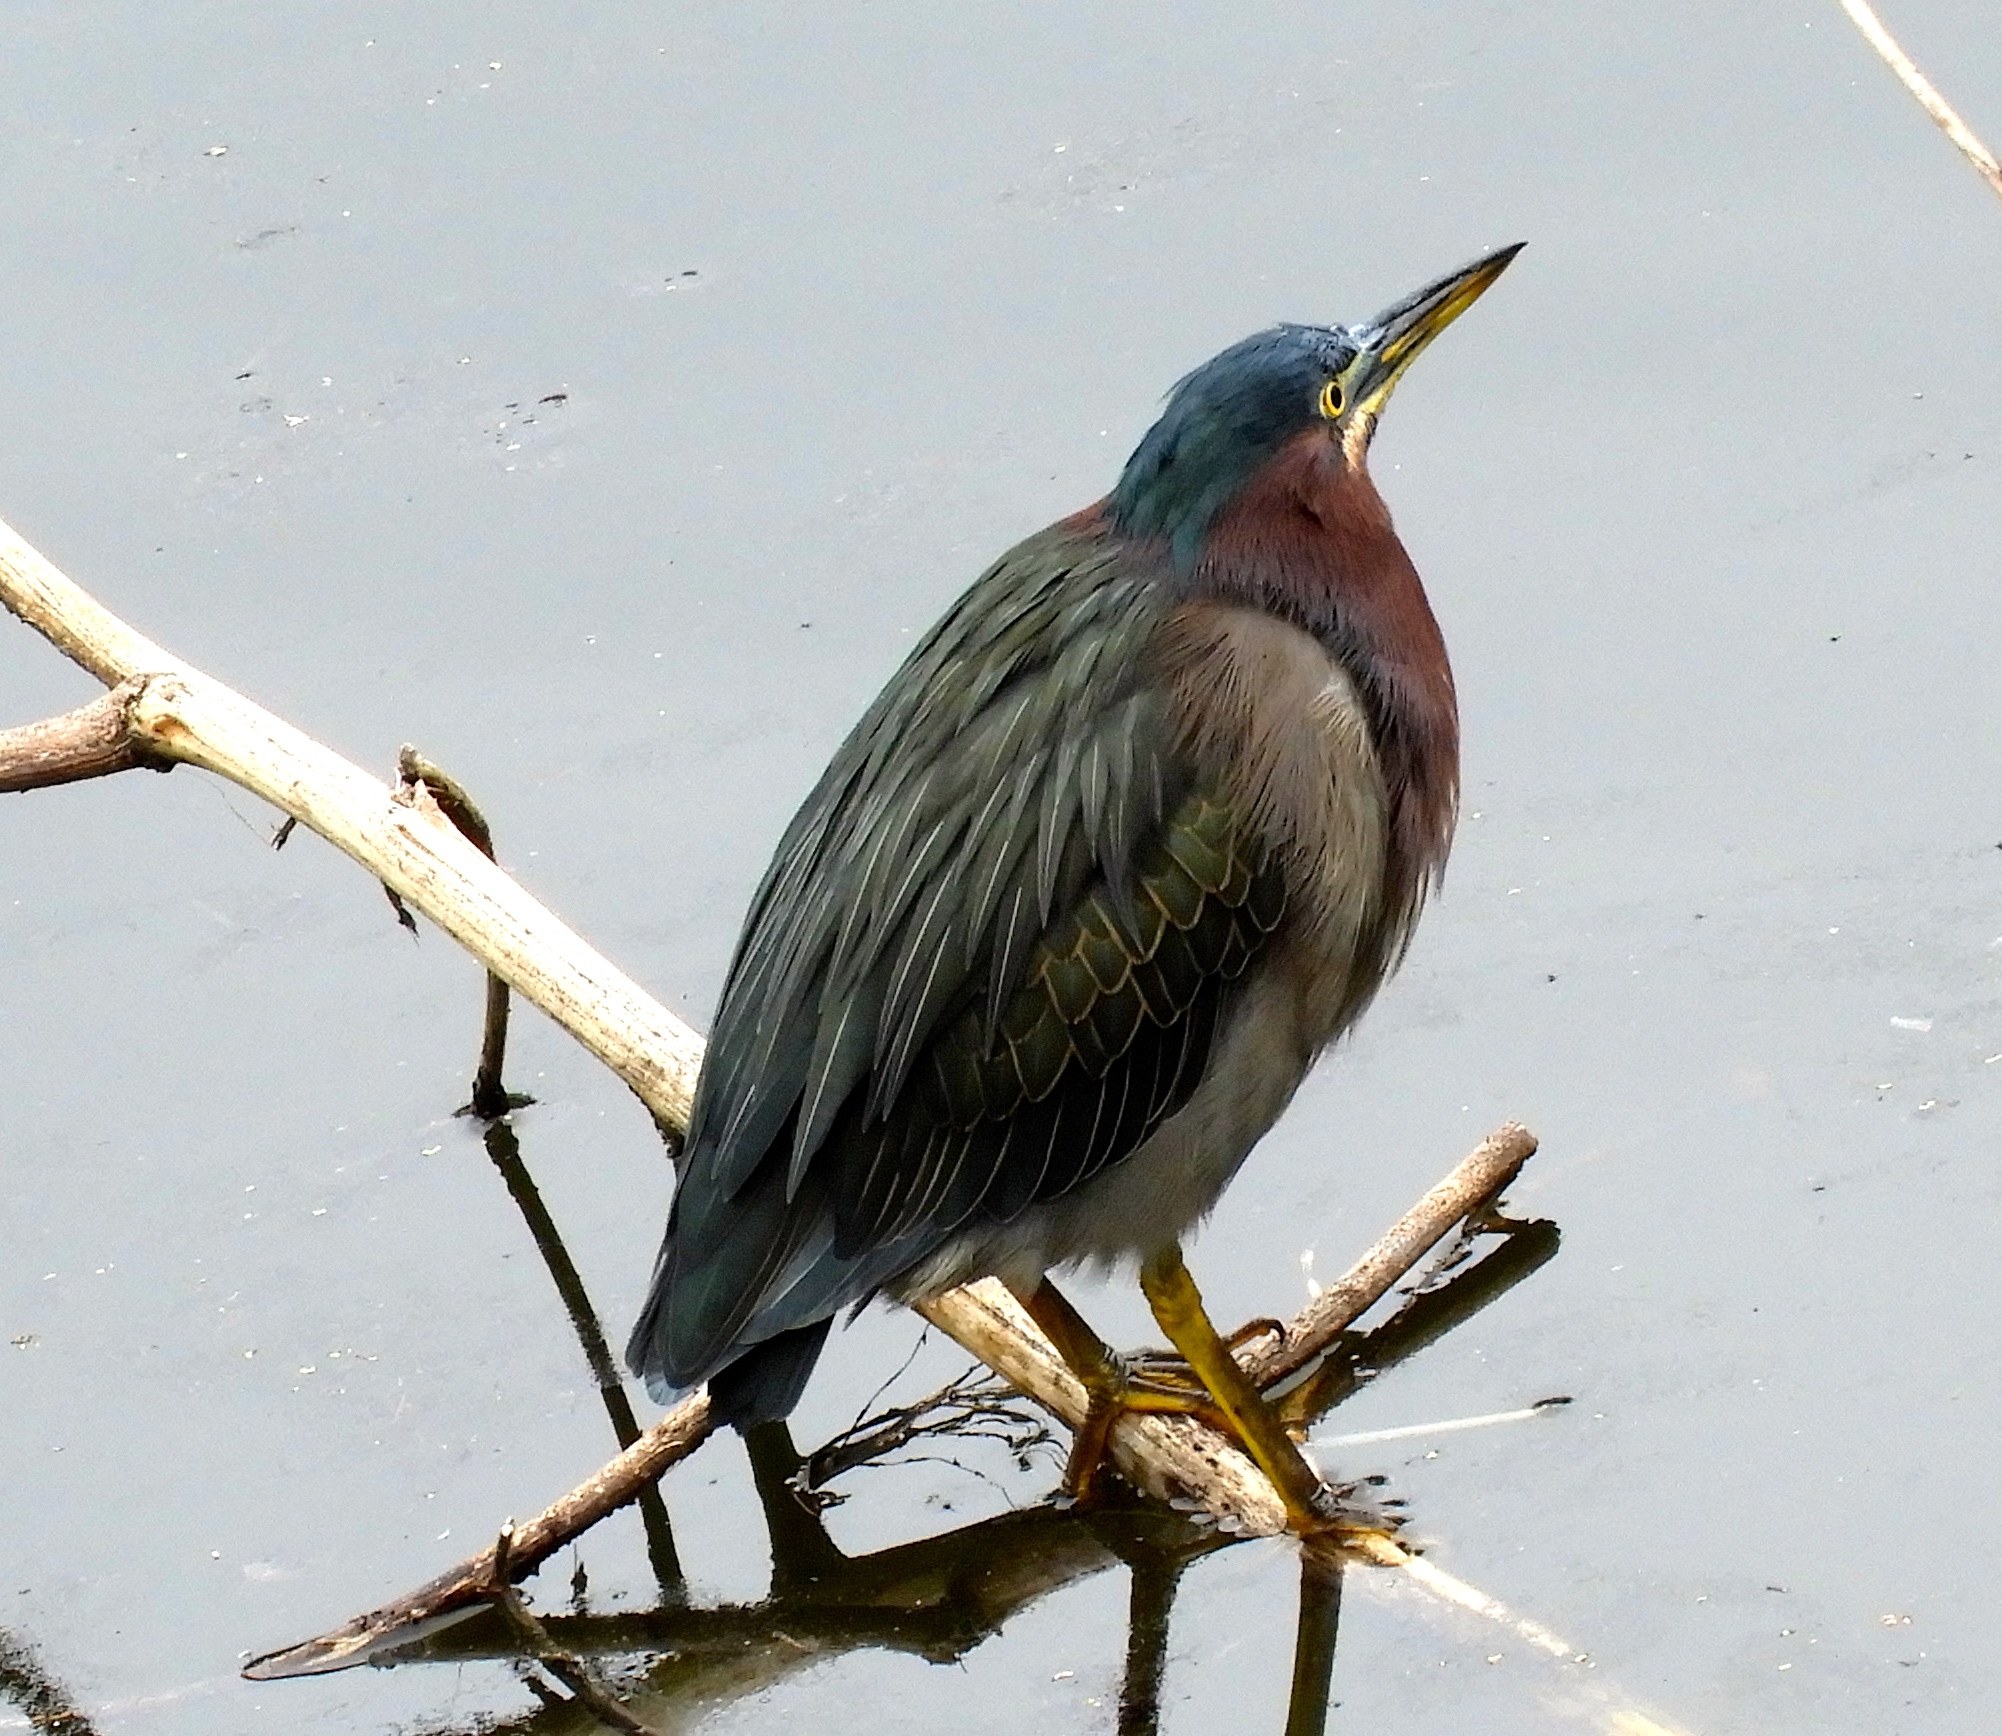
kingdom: Animalia
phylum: Chordata
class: Aves
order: Pelecaniformes
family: Ardeidae
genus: Butorides
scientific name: Butorides virescens
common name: Green heron
